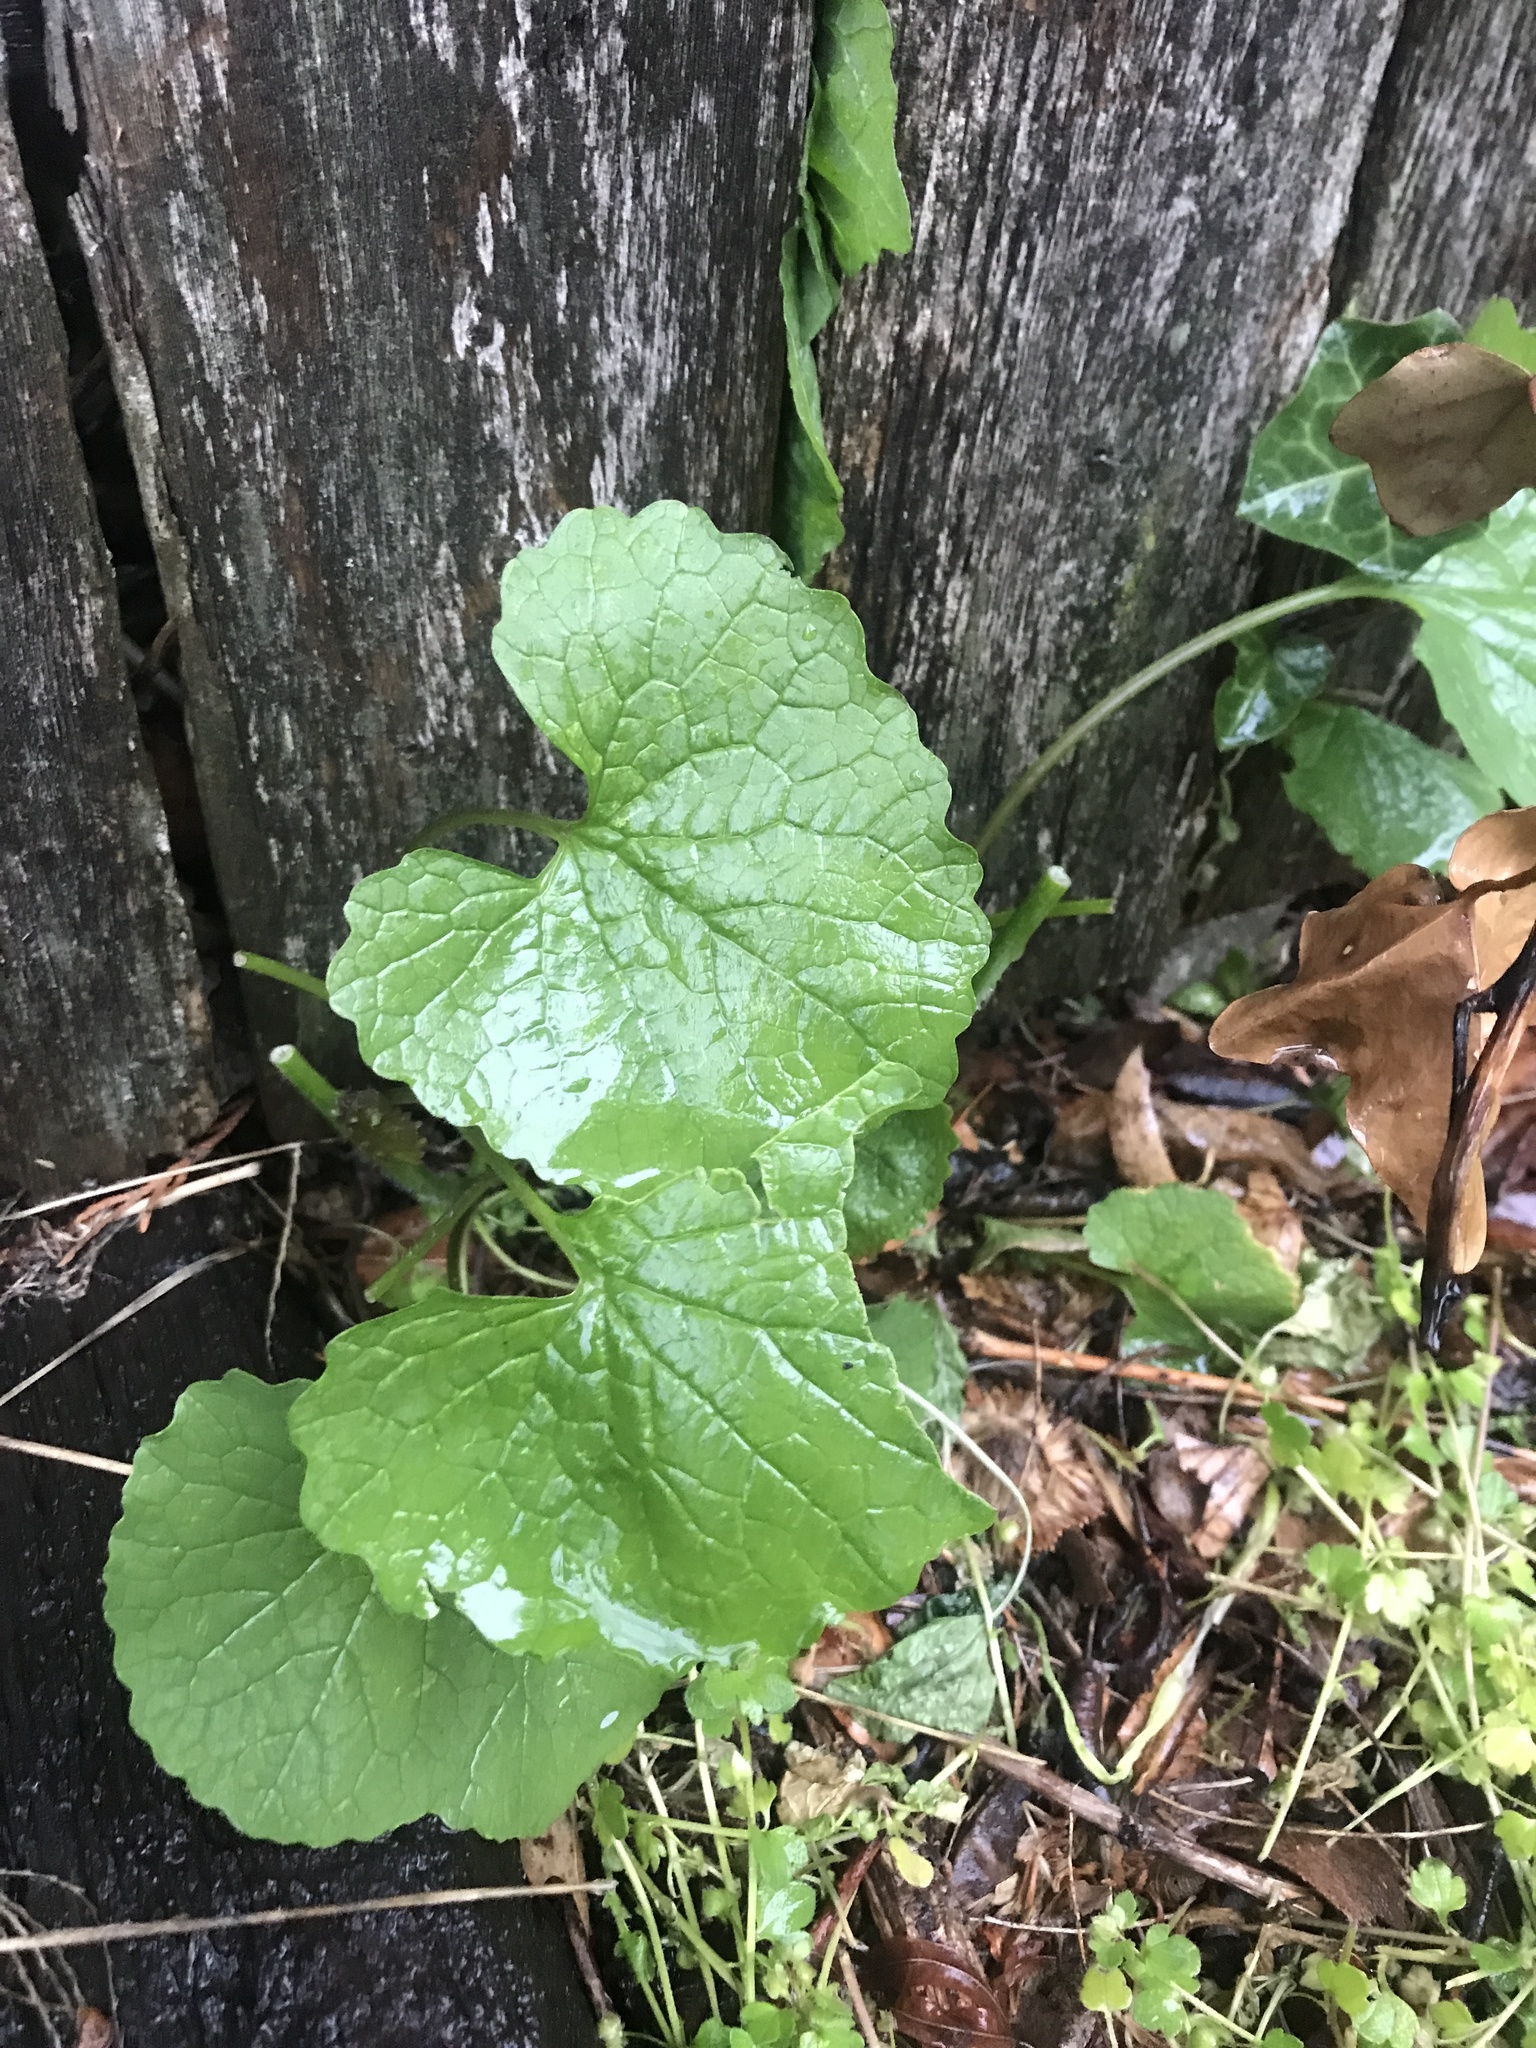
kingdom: Plantae
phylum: Tracheophyta
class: Magnoliopsida
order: Brassicales
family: Brassicaceae
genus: Alliaria
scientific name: Alliaria petiolata
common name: Garlic mustard
